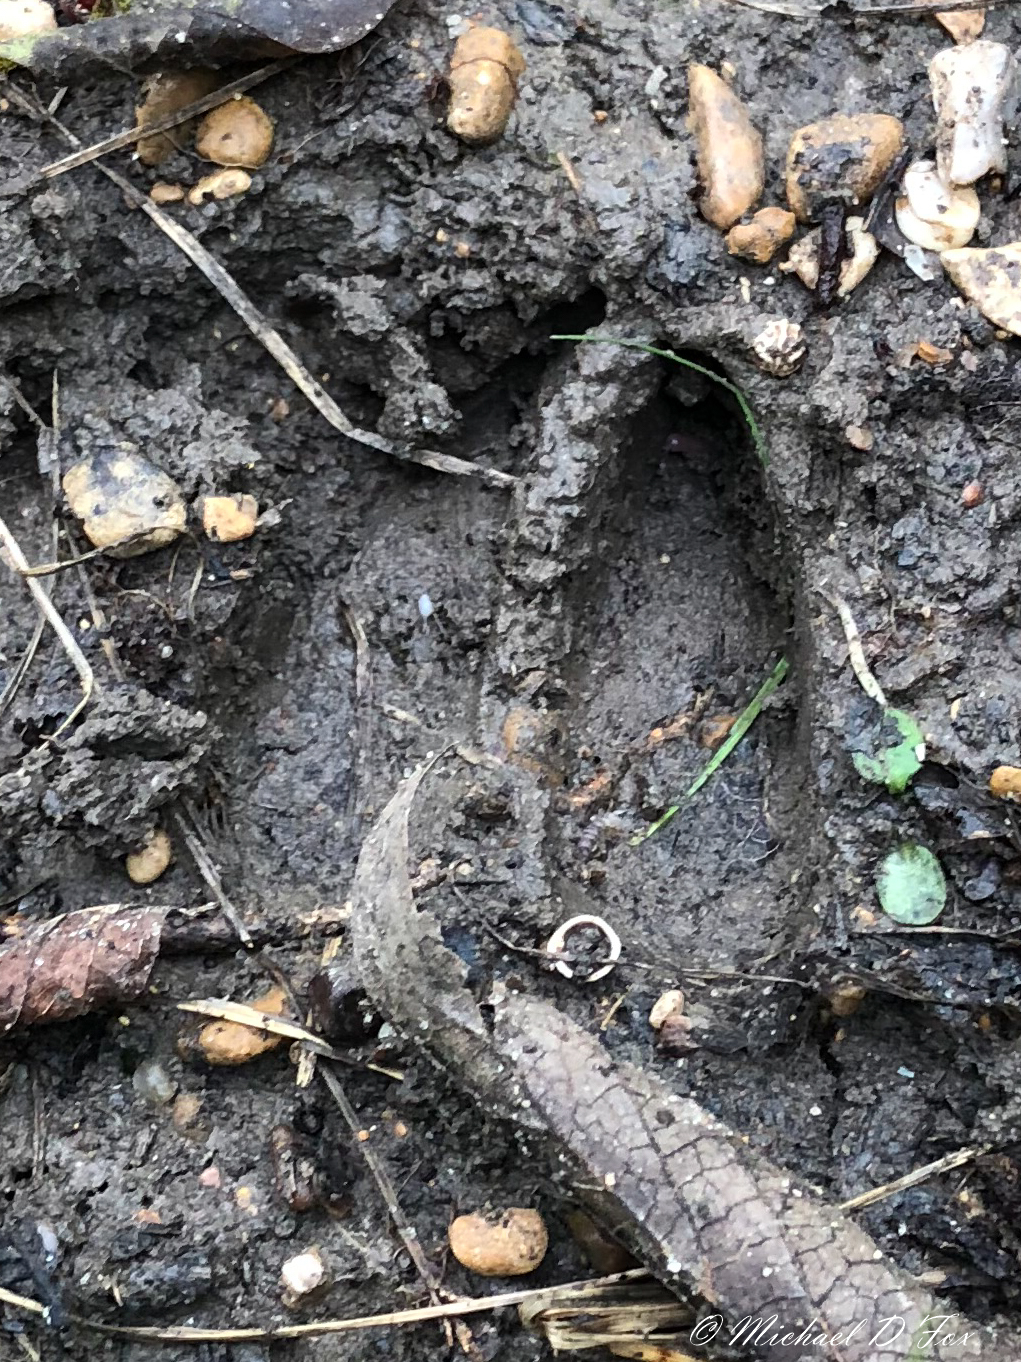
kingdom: Animalia
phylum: Chordata
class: Mammalia
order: Artiodactyla
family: Cervidae
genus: Odocoileus
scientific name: Odocoileus virginianus
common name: White-tailed deer
